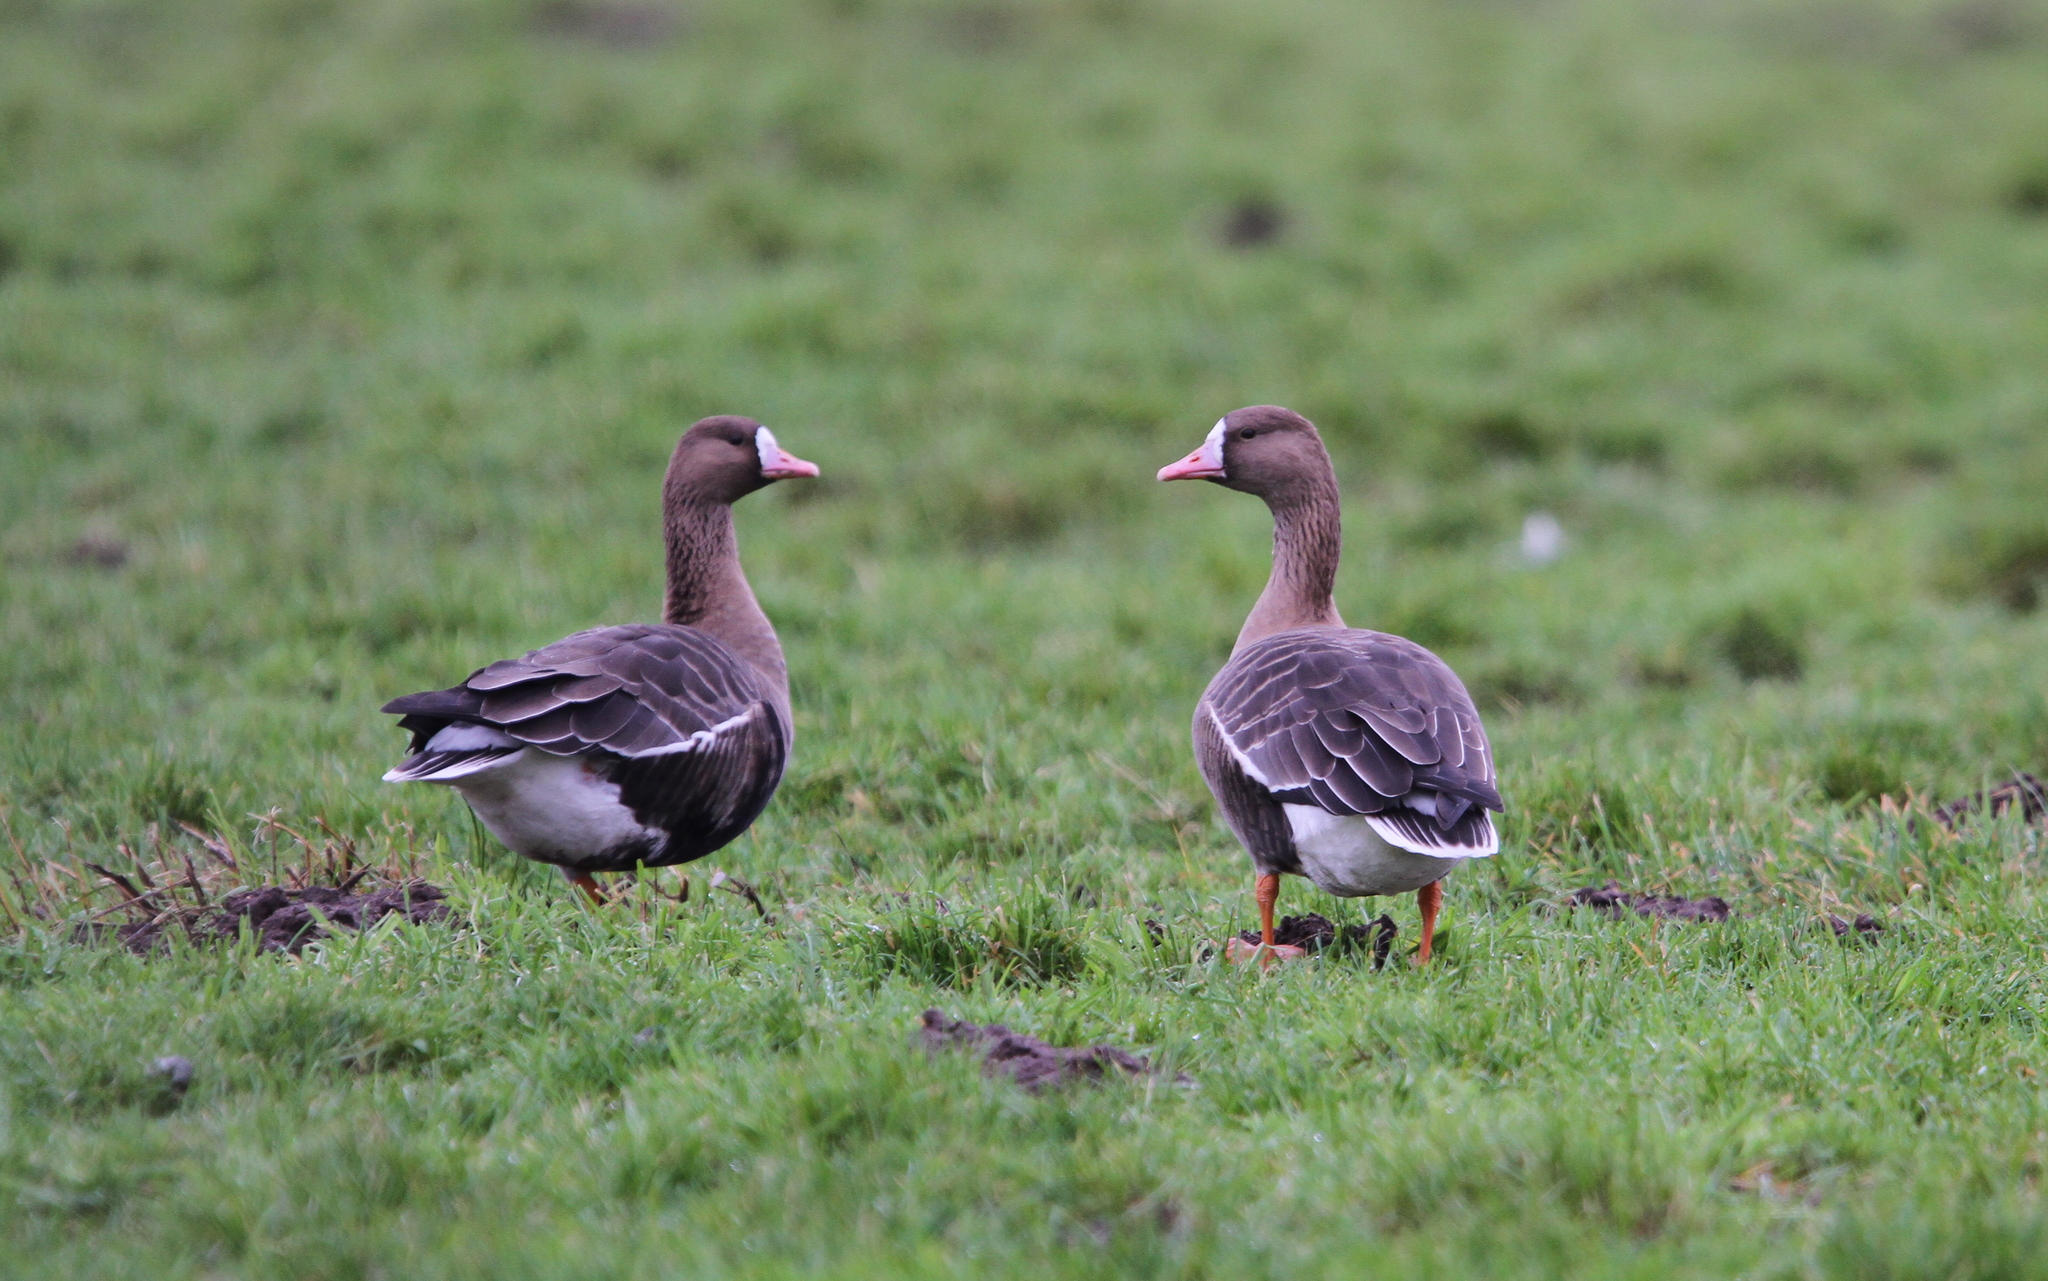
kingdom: Animalia
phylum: Chordata
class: Aves
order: Anseriformes
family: Anatidae
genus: Anser
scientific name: Anser albifrons
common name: Greater white-fronted goose
